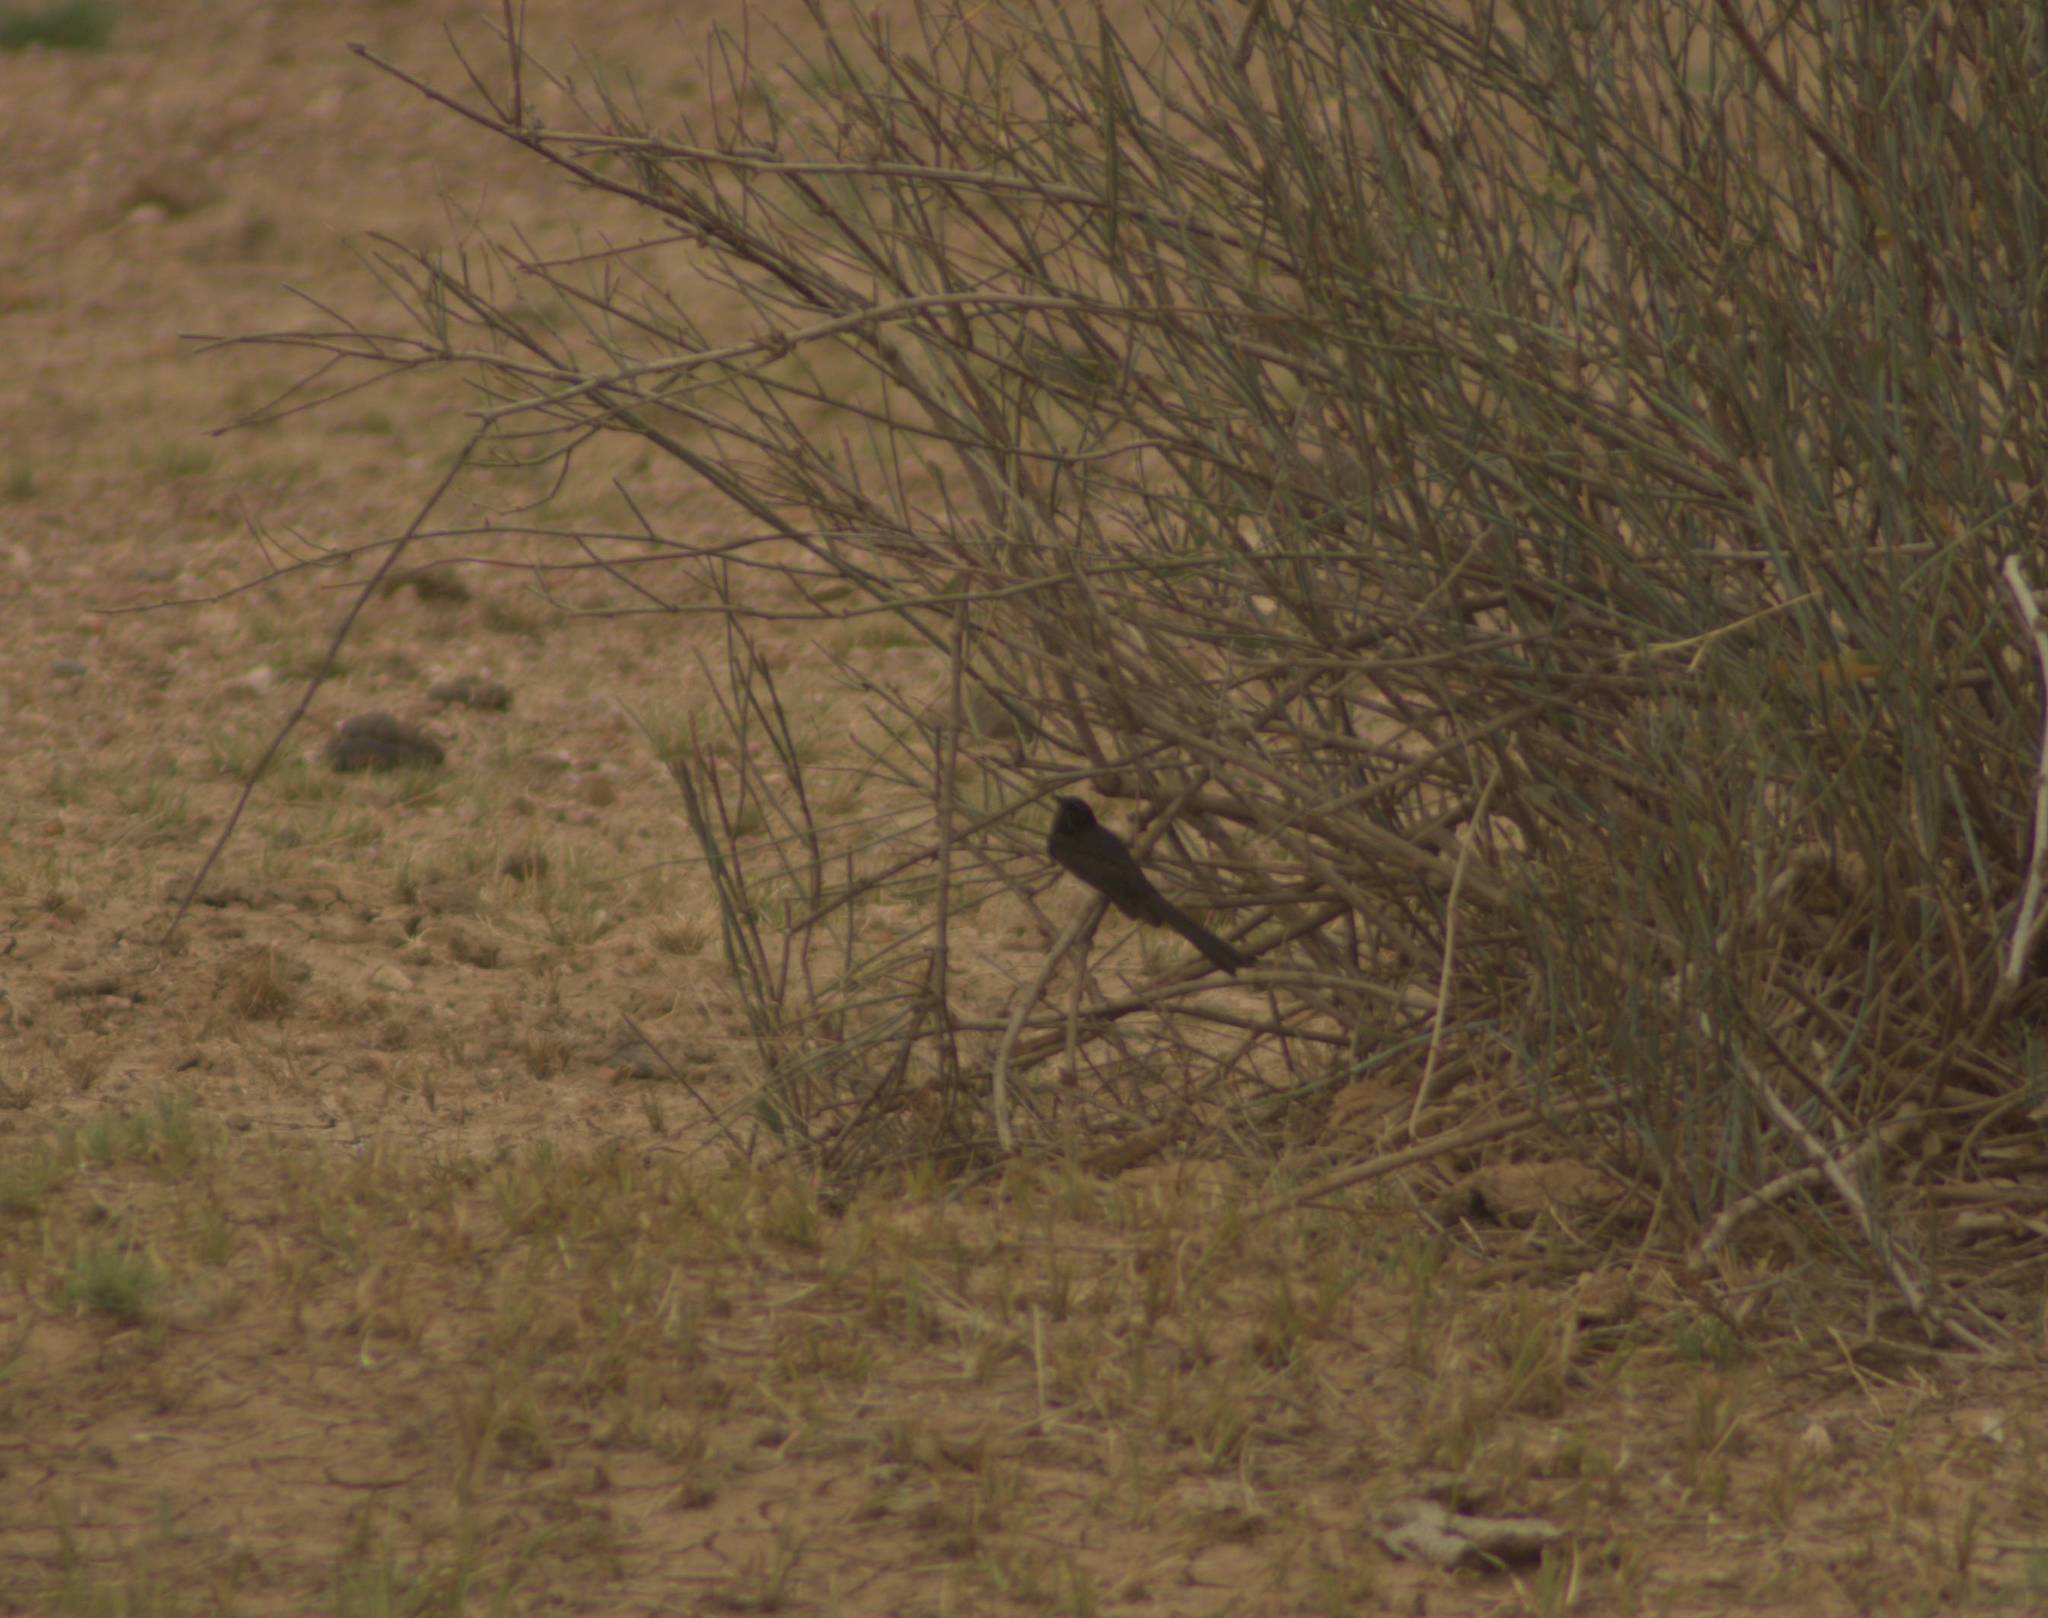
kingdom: Animalia
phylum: Chordata
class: Aves
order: Passeriformes
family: Rhipiduridae
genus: Rhipidura
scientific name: Rhipidura leucophrys
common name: Willie wagtail
